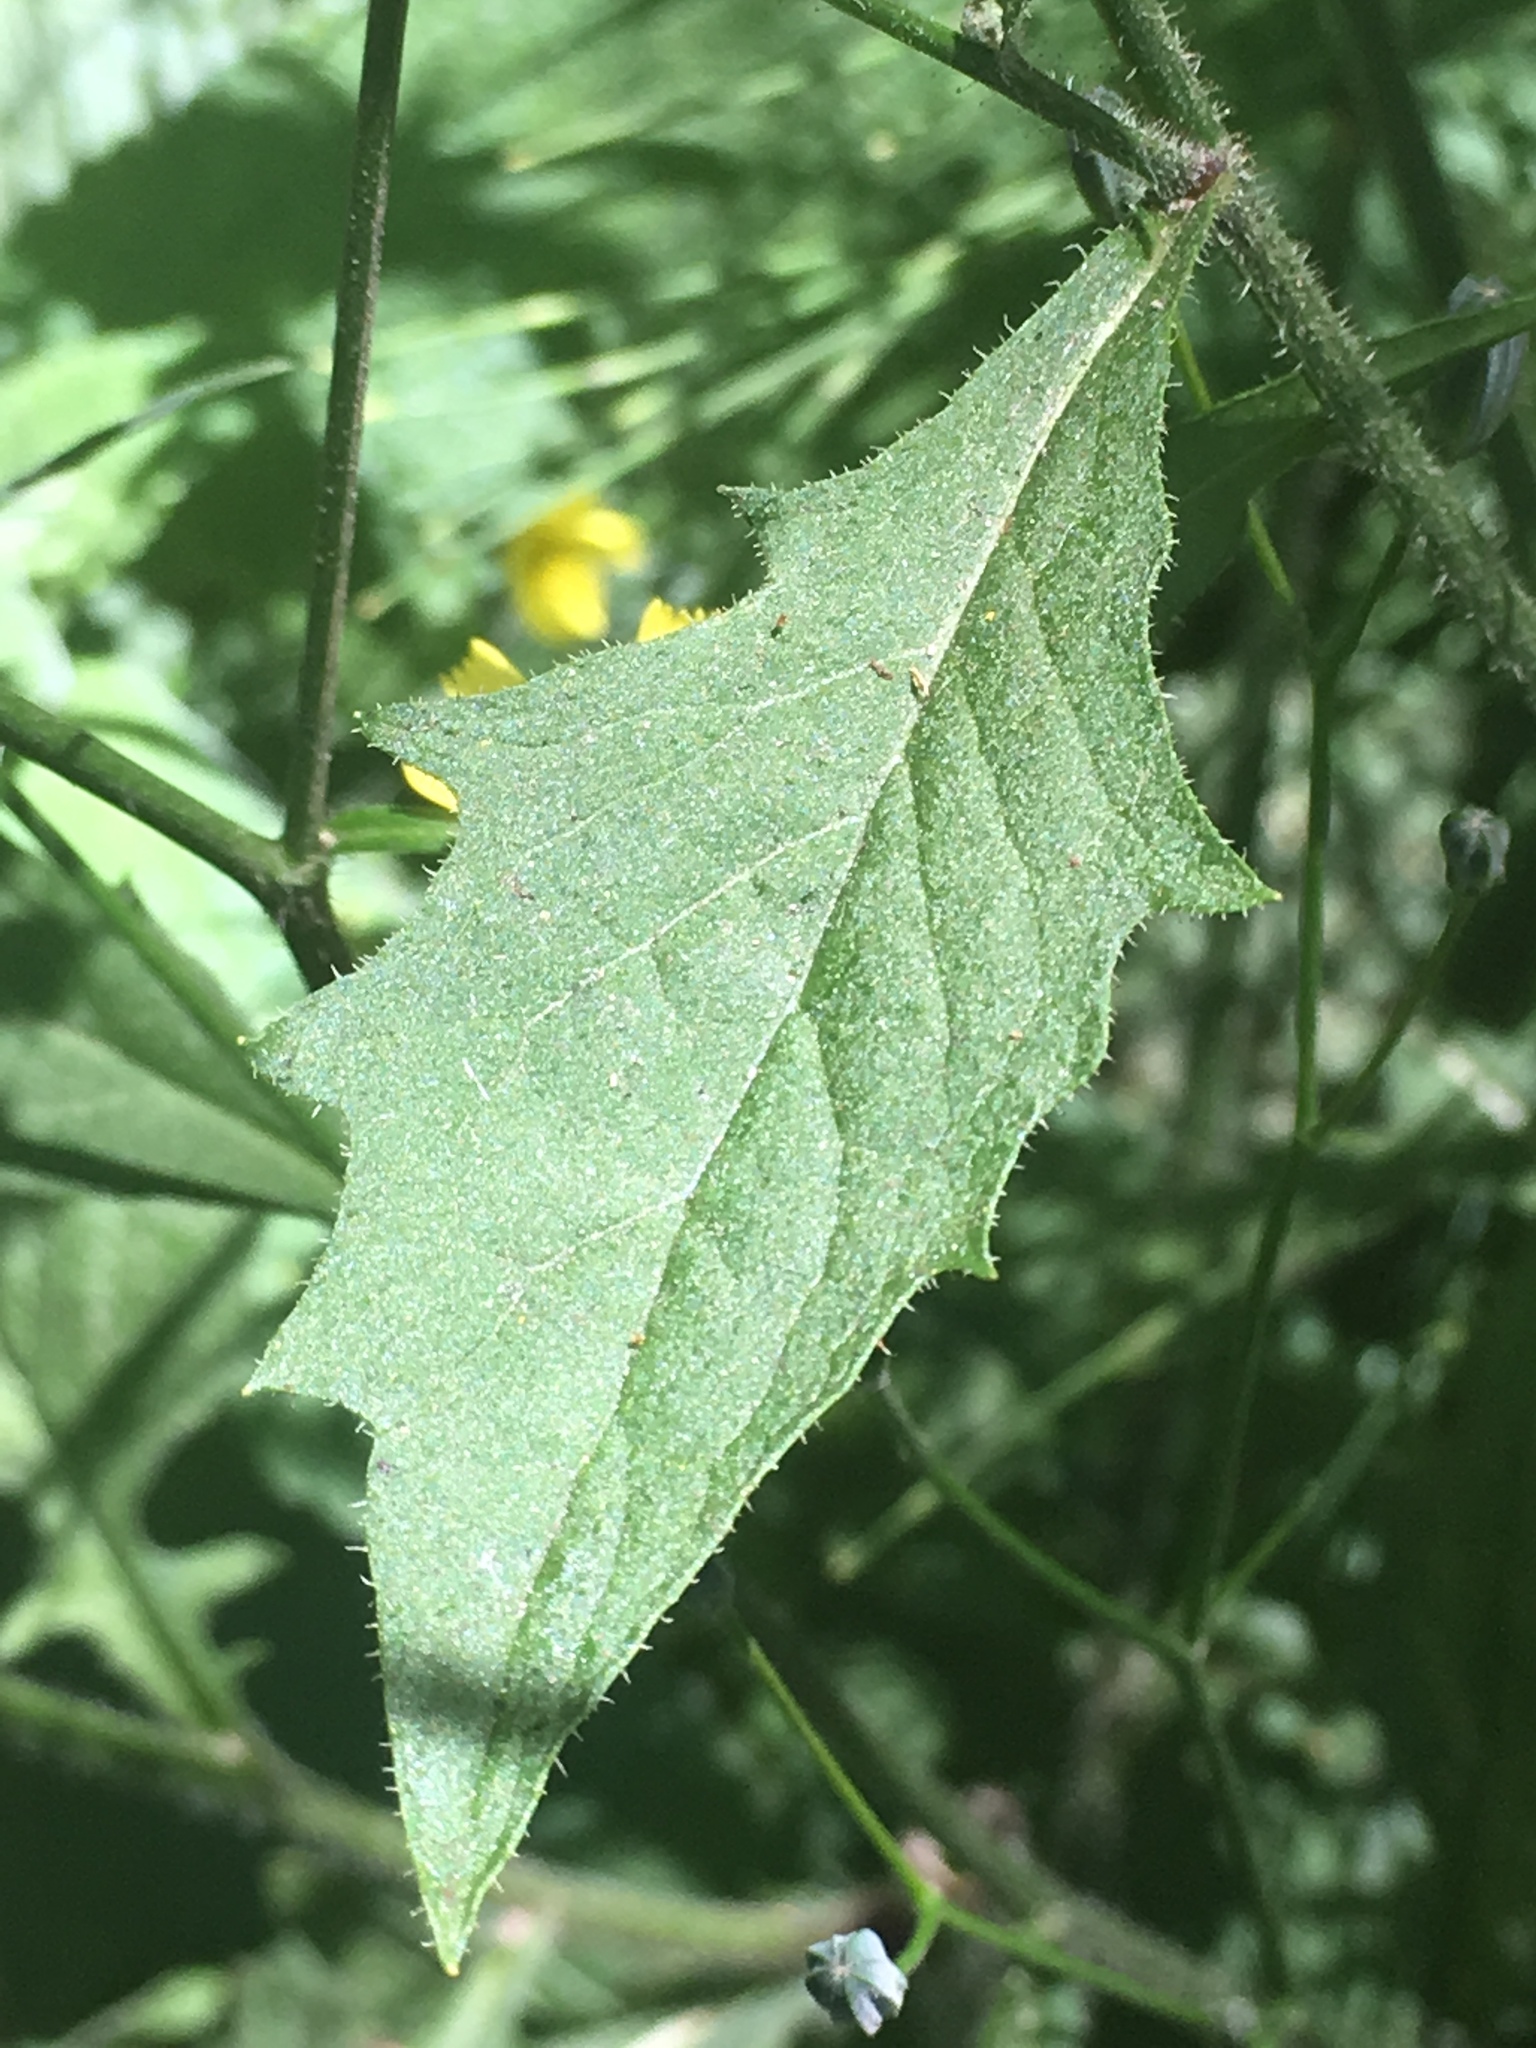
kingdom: Plantae
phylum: Tracheophyta
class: Magnoliopsida
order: Asterales
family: Asteraceae
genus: Lapsana
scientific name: Lapsana communis
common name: Nipplewort
